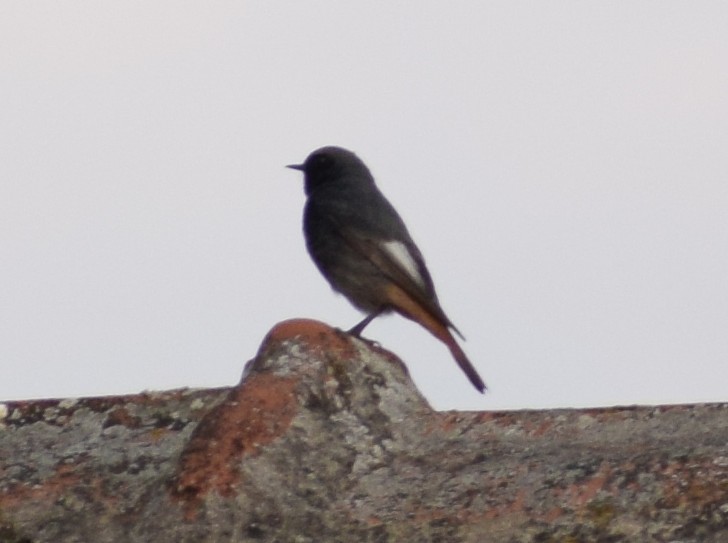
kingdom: Animalia
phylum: Chordata
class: Aves
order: Passeriformes
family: Muscicapidae
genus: Phoenicurus
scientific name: Phoenicurus ochruros
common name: Black redstart
